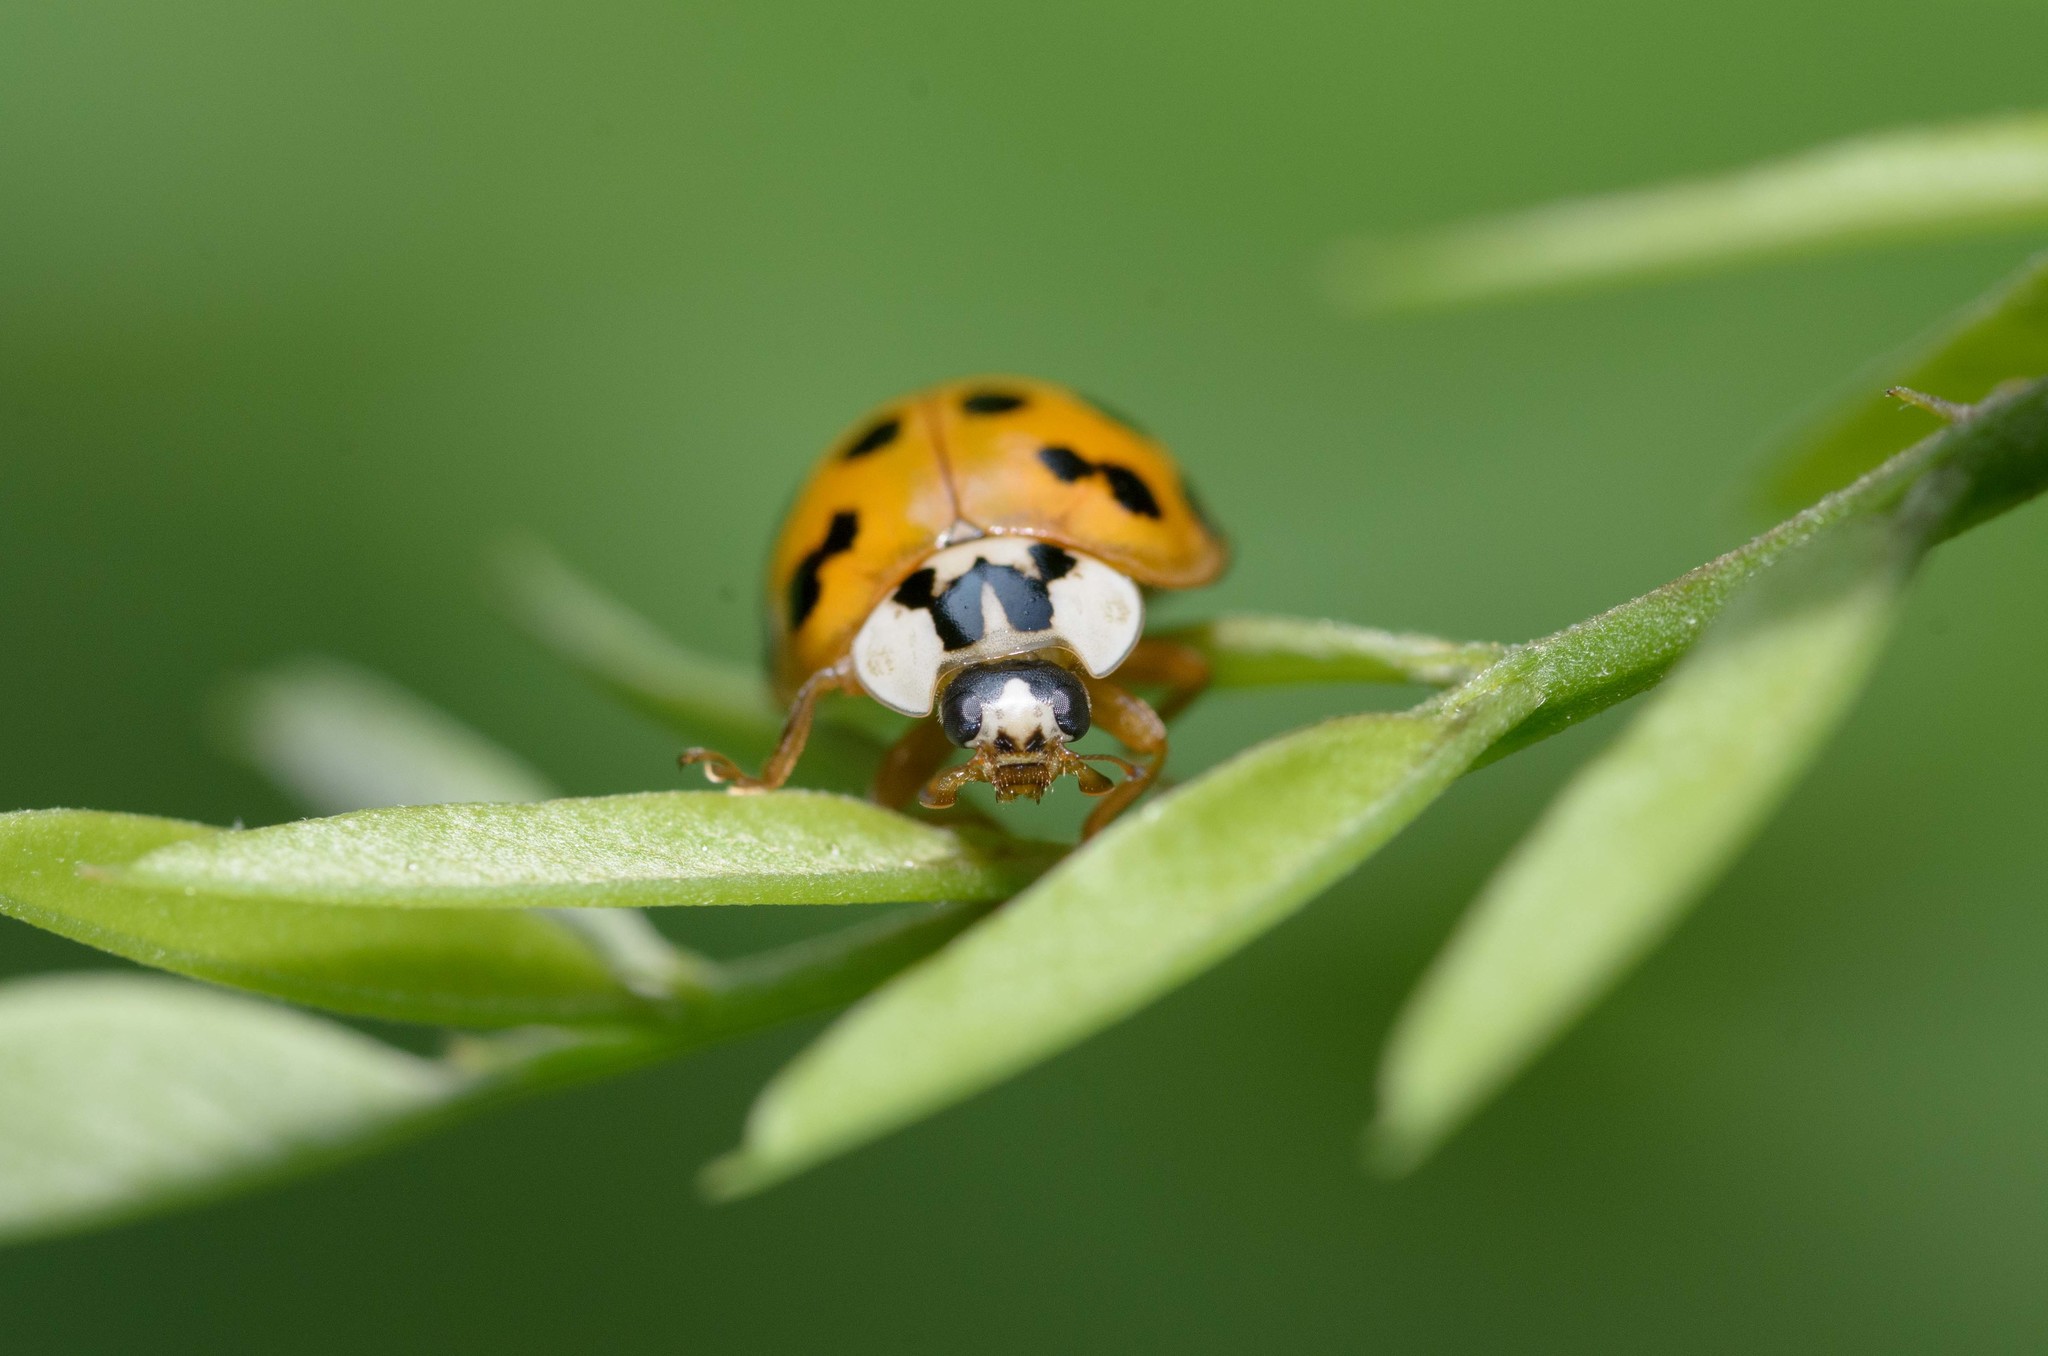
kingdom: Animalia
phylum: Arthropoda
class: Insecta
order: Coleoptera
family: Coccinellidae
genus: Harmonia
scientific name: Harmonia axyridis
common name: Harlequin ladybird
